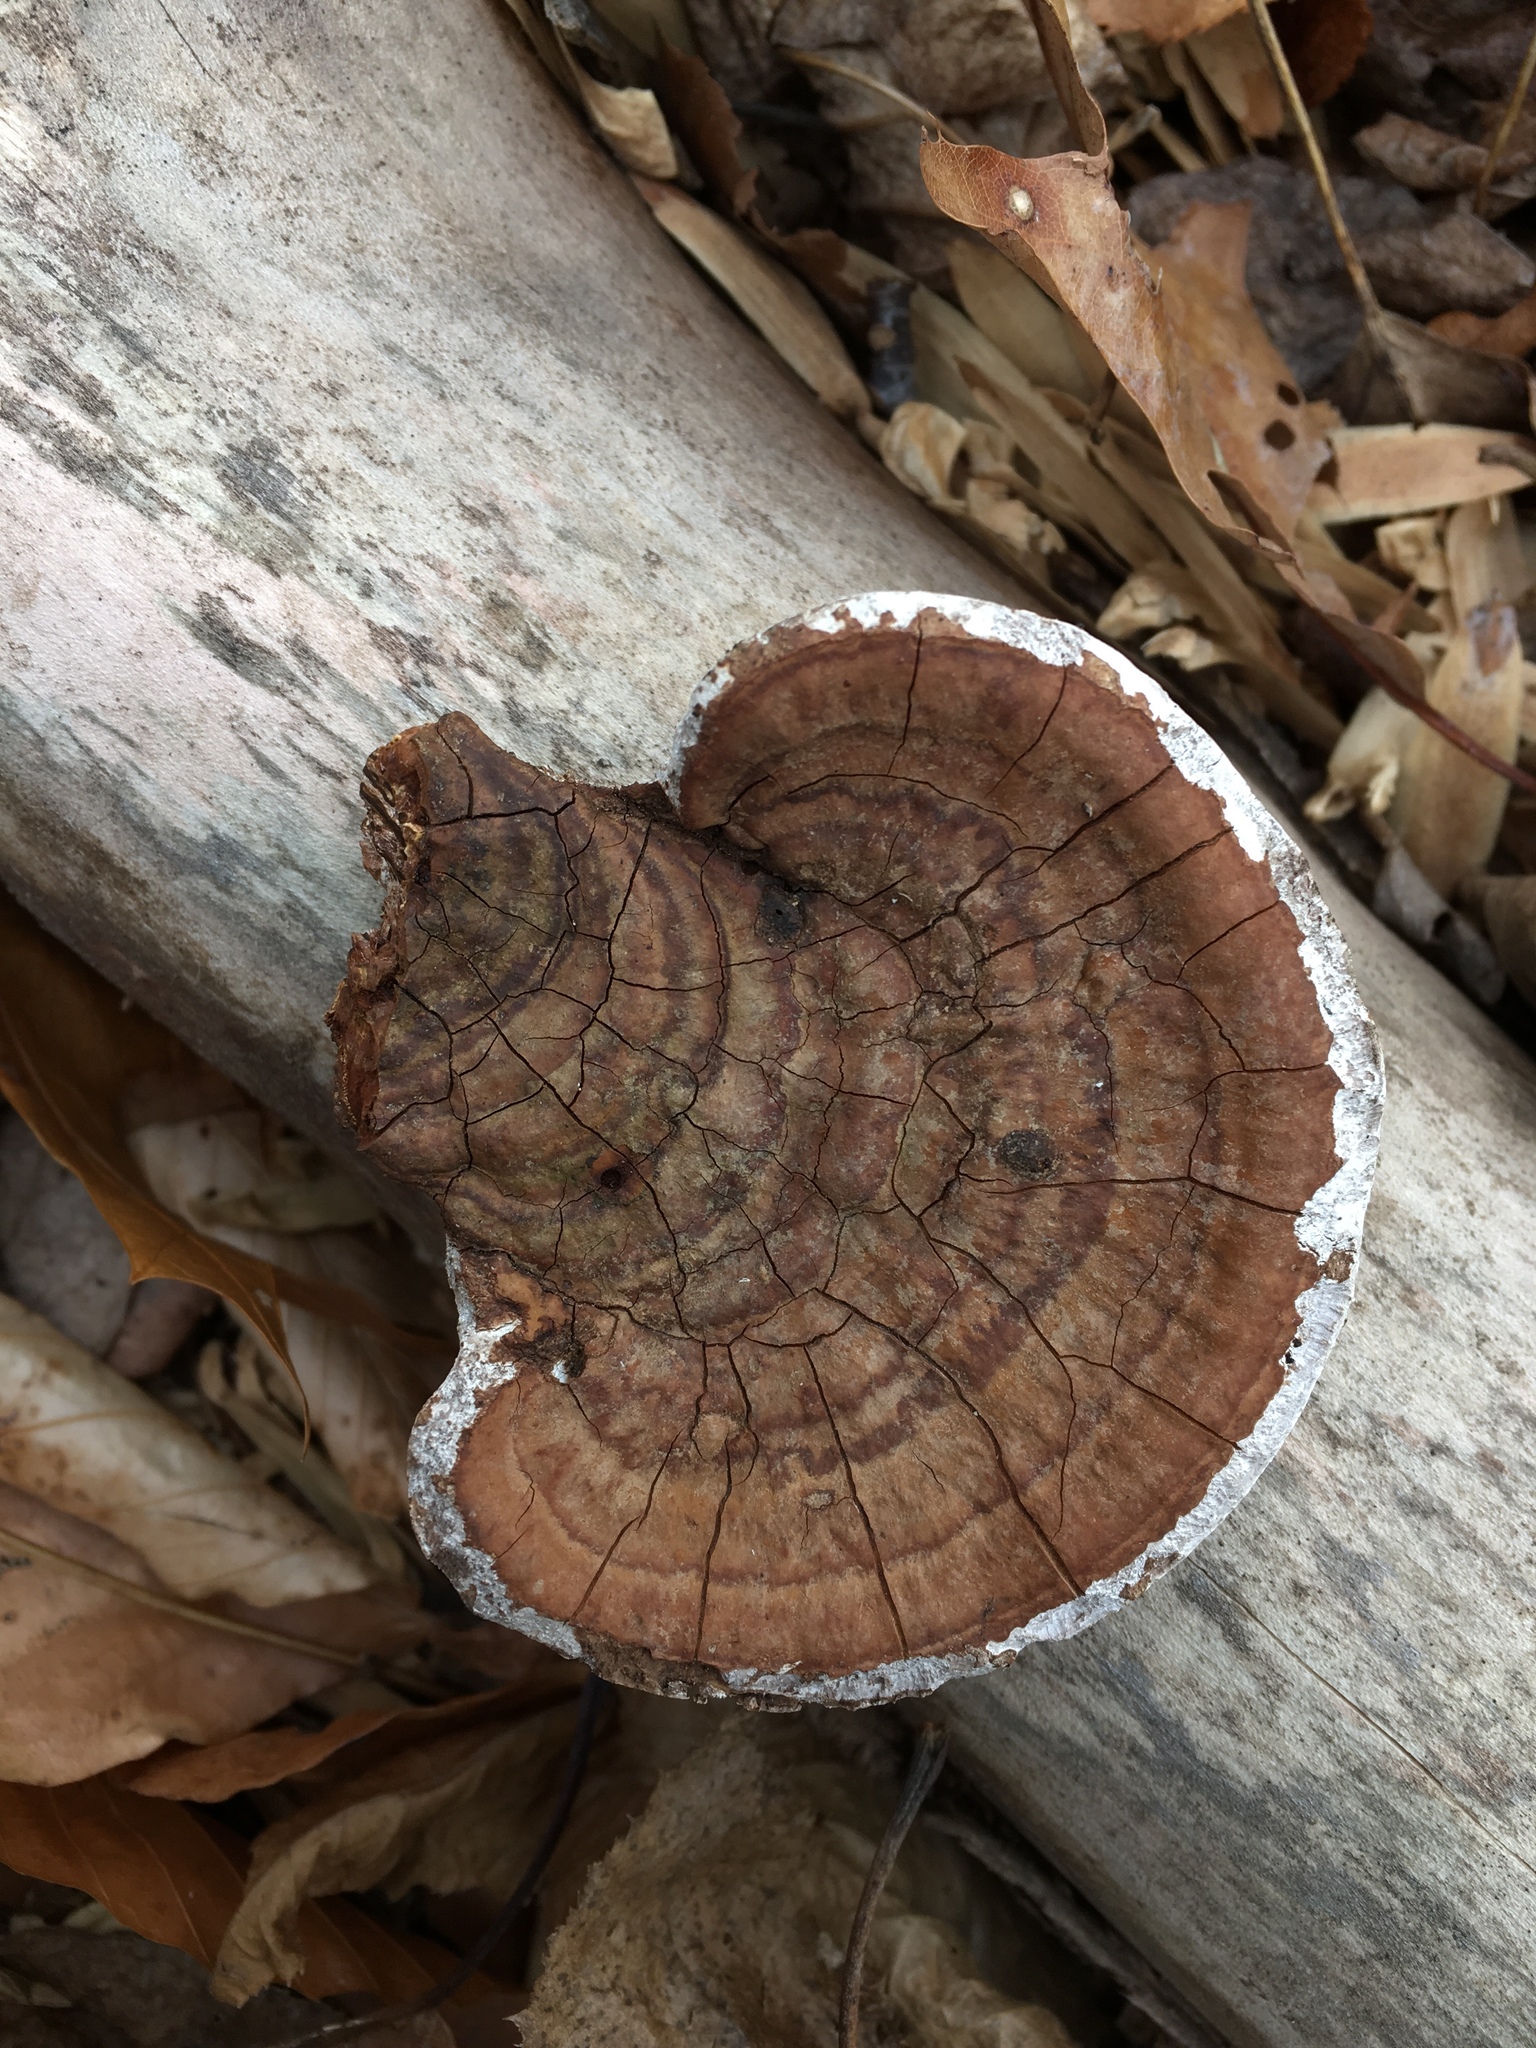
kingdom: Fungi
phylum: Basidiomycota
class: Agaricomycetes
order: Polyporales
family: Polyporaceae
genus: Ganoderma
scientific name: Ganoderma lobatum
